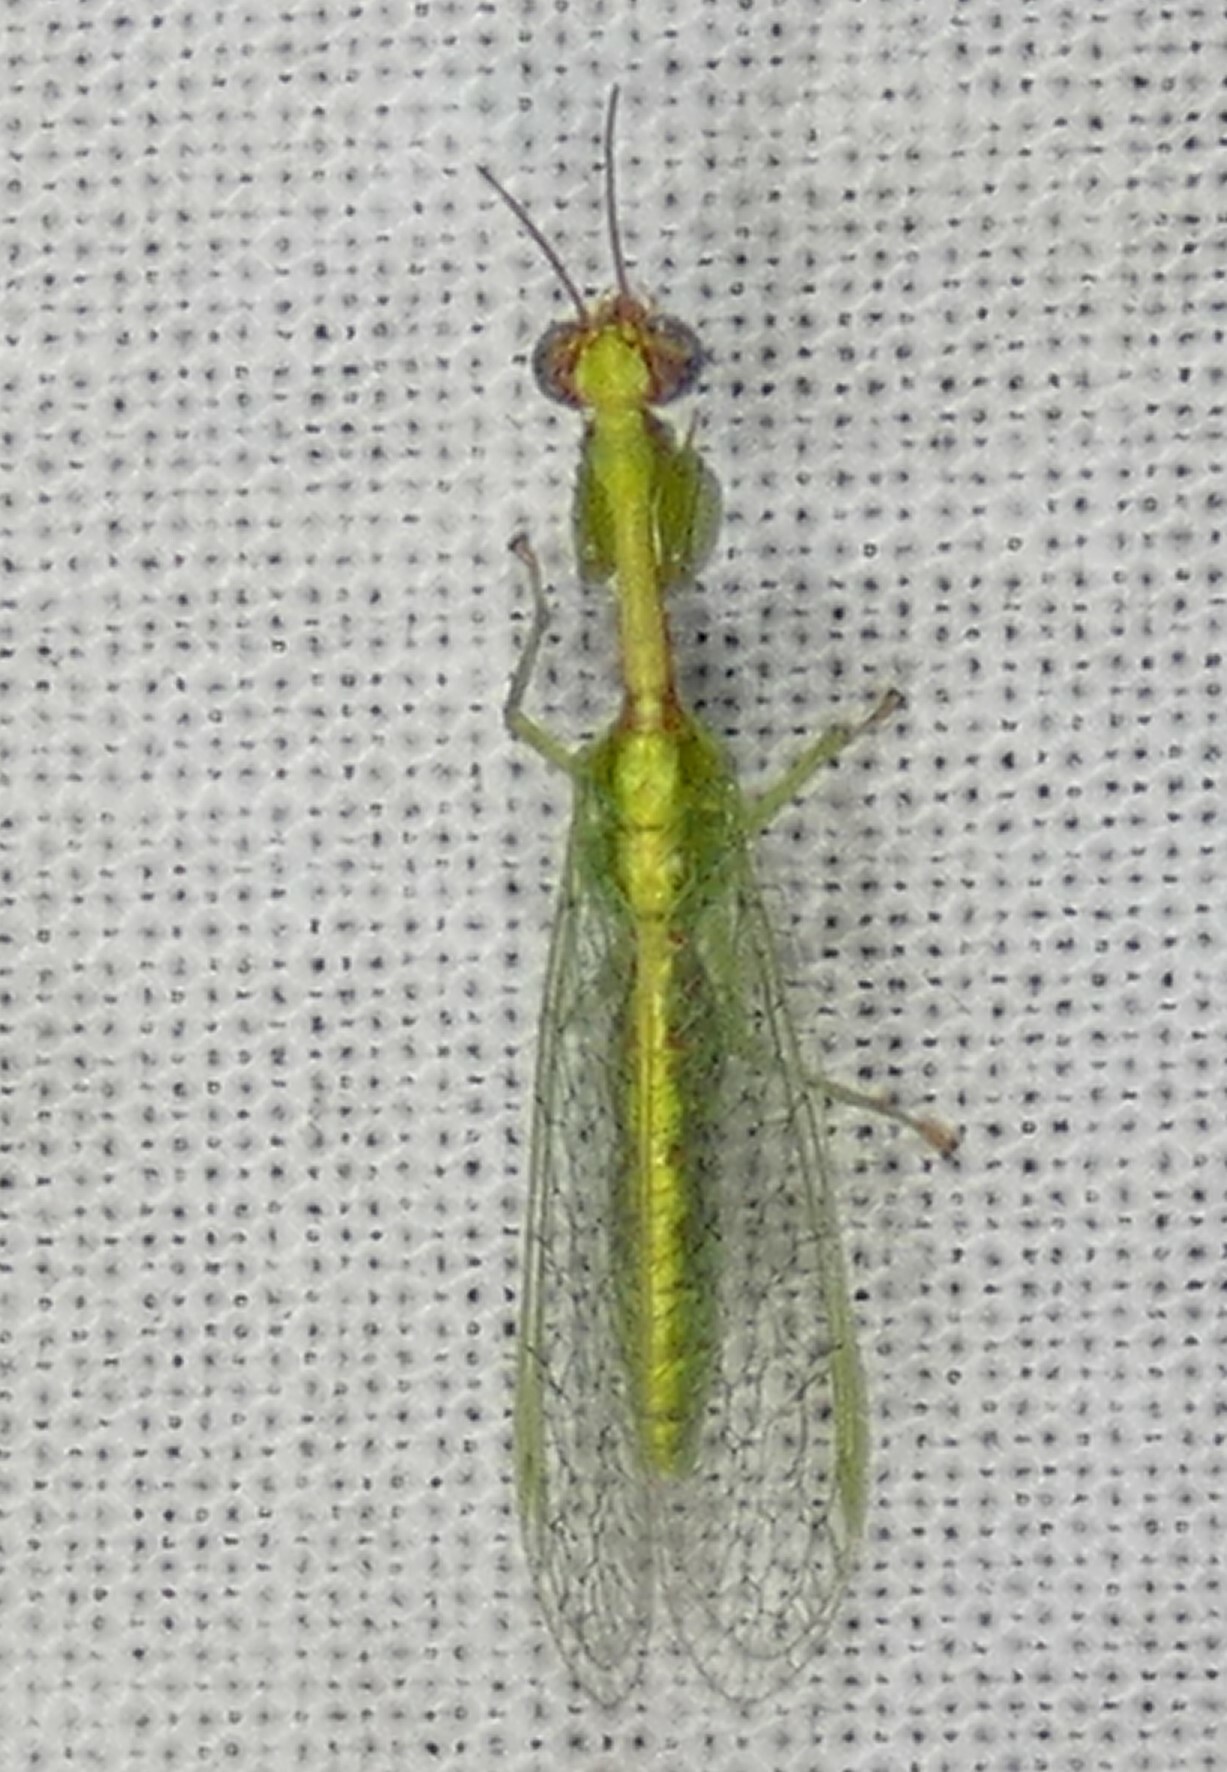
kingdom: Animalia
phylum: Arthropoda
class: Insecta
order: Neuroptera
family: Mantispidae
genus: Zeugomantispa
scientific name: Zeugomantispa minuta
